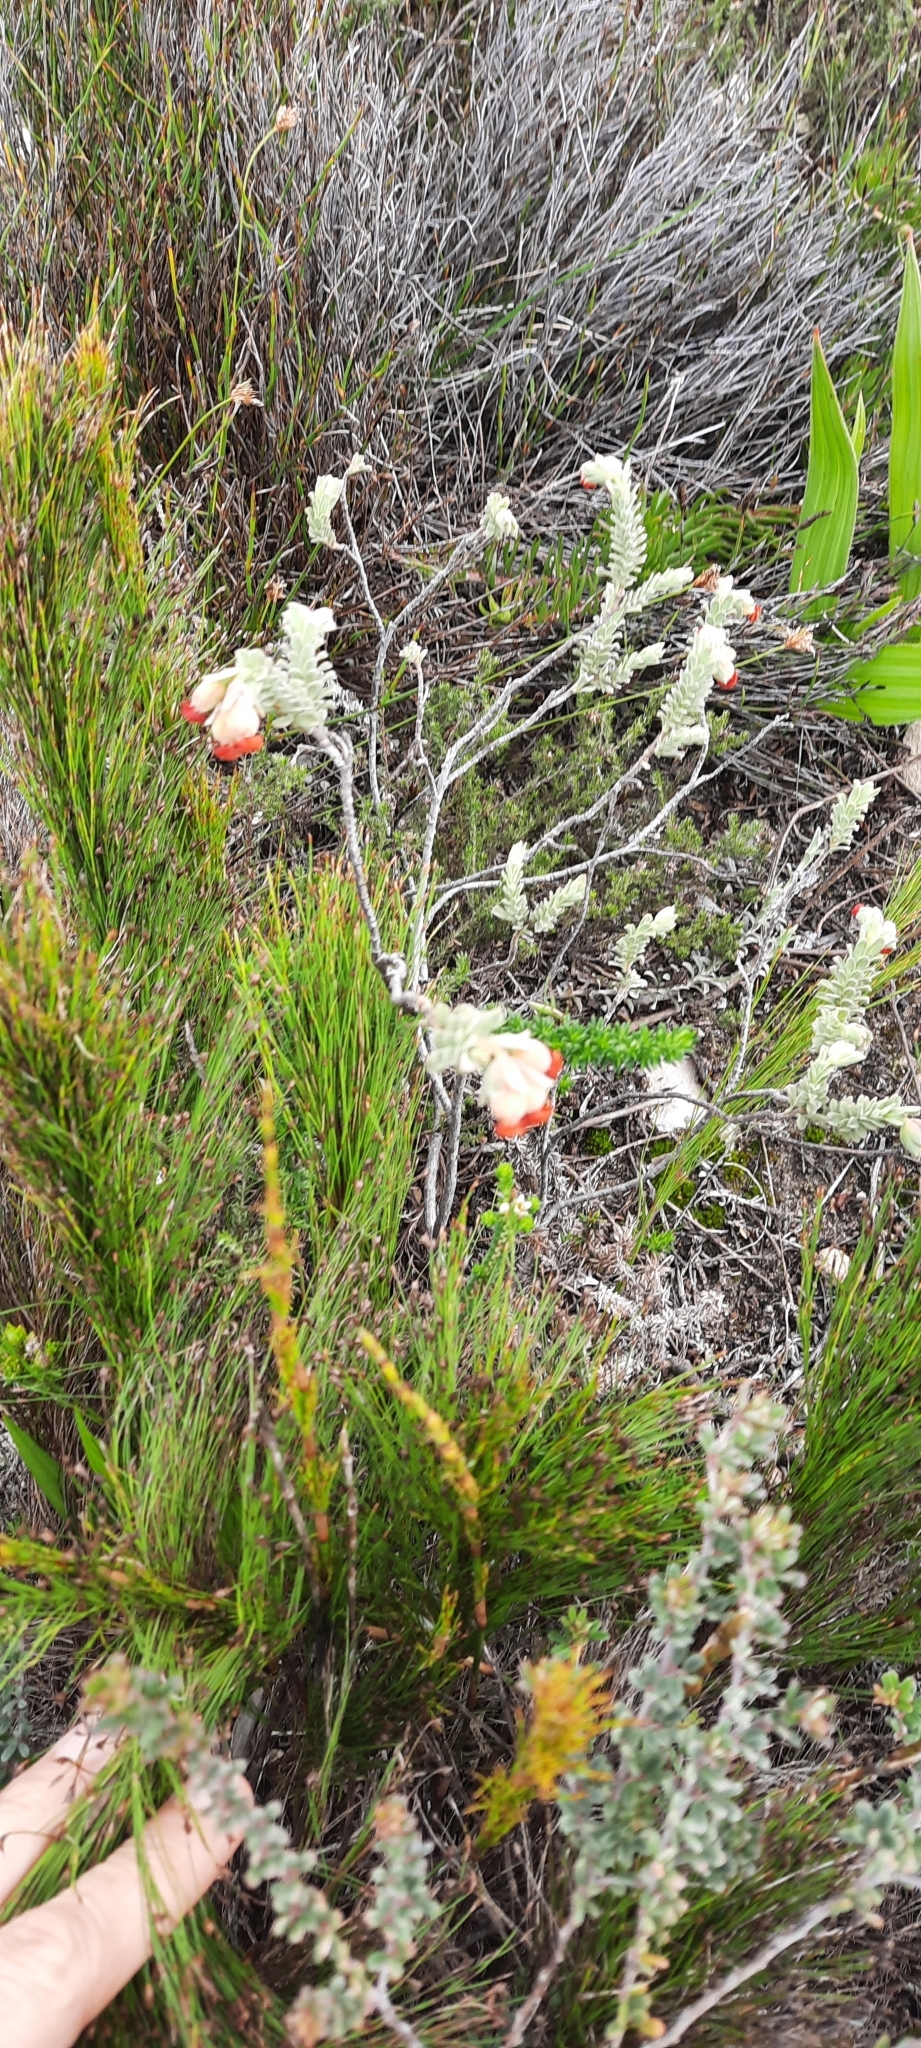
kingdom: Plantae
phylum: Tracheophyta
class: Magnoliopsida
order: Malvales
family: Malvaceae
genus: Hermannia
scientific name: Hermannia trifoliata
